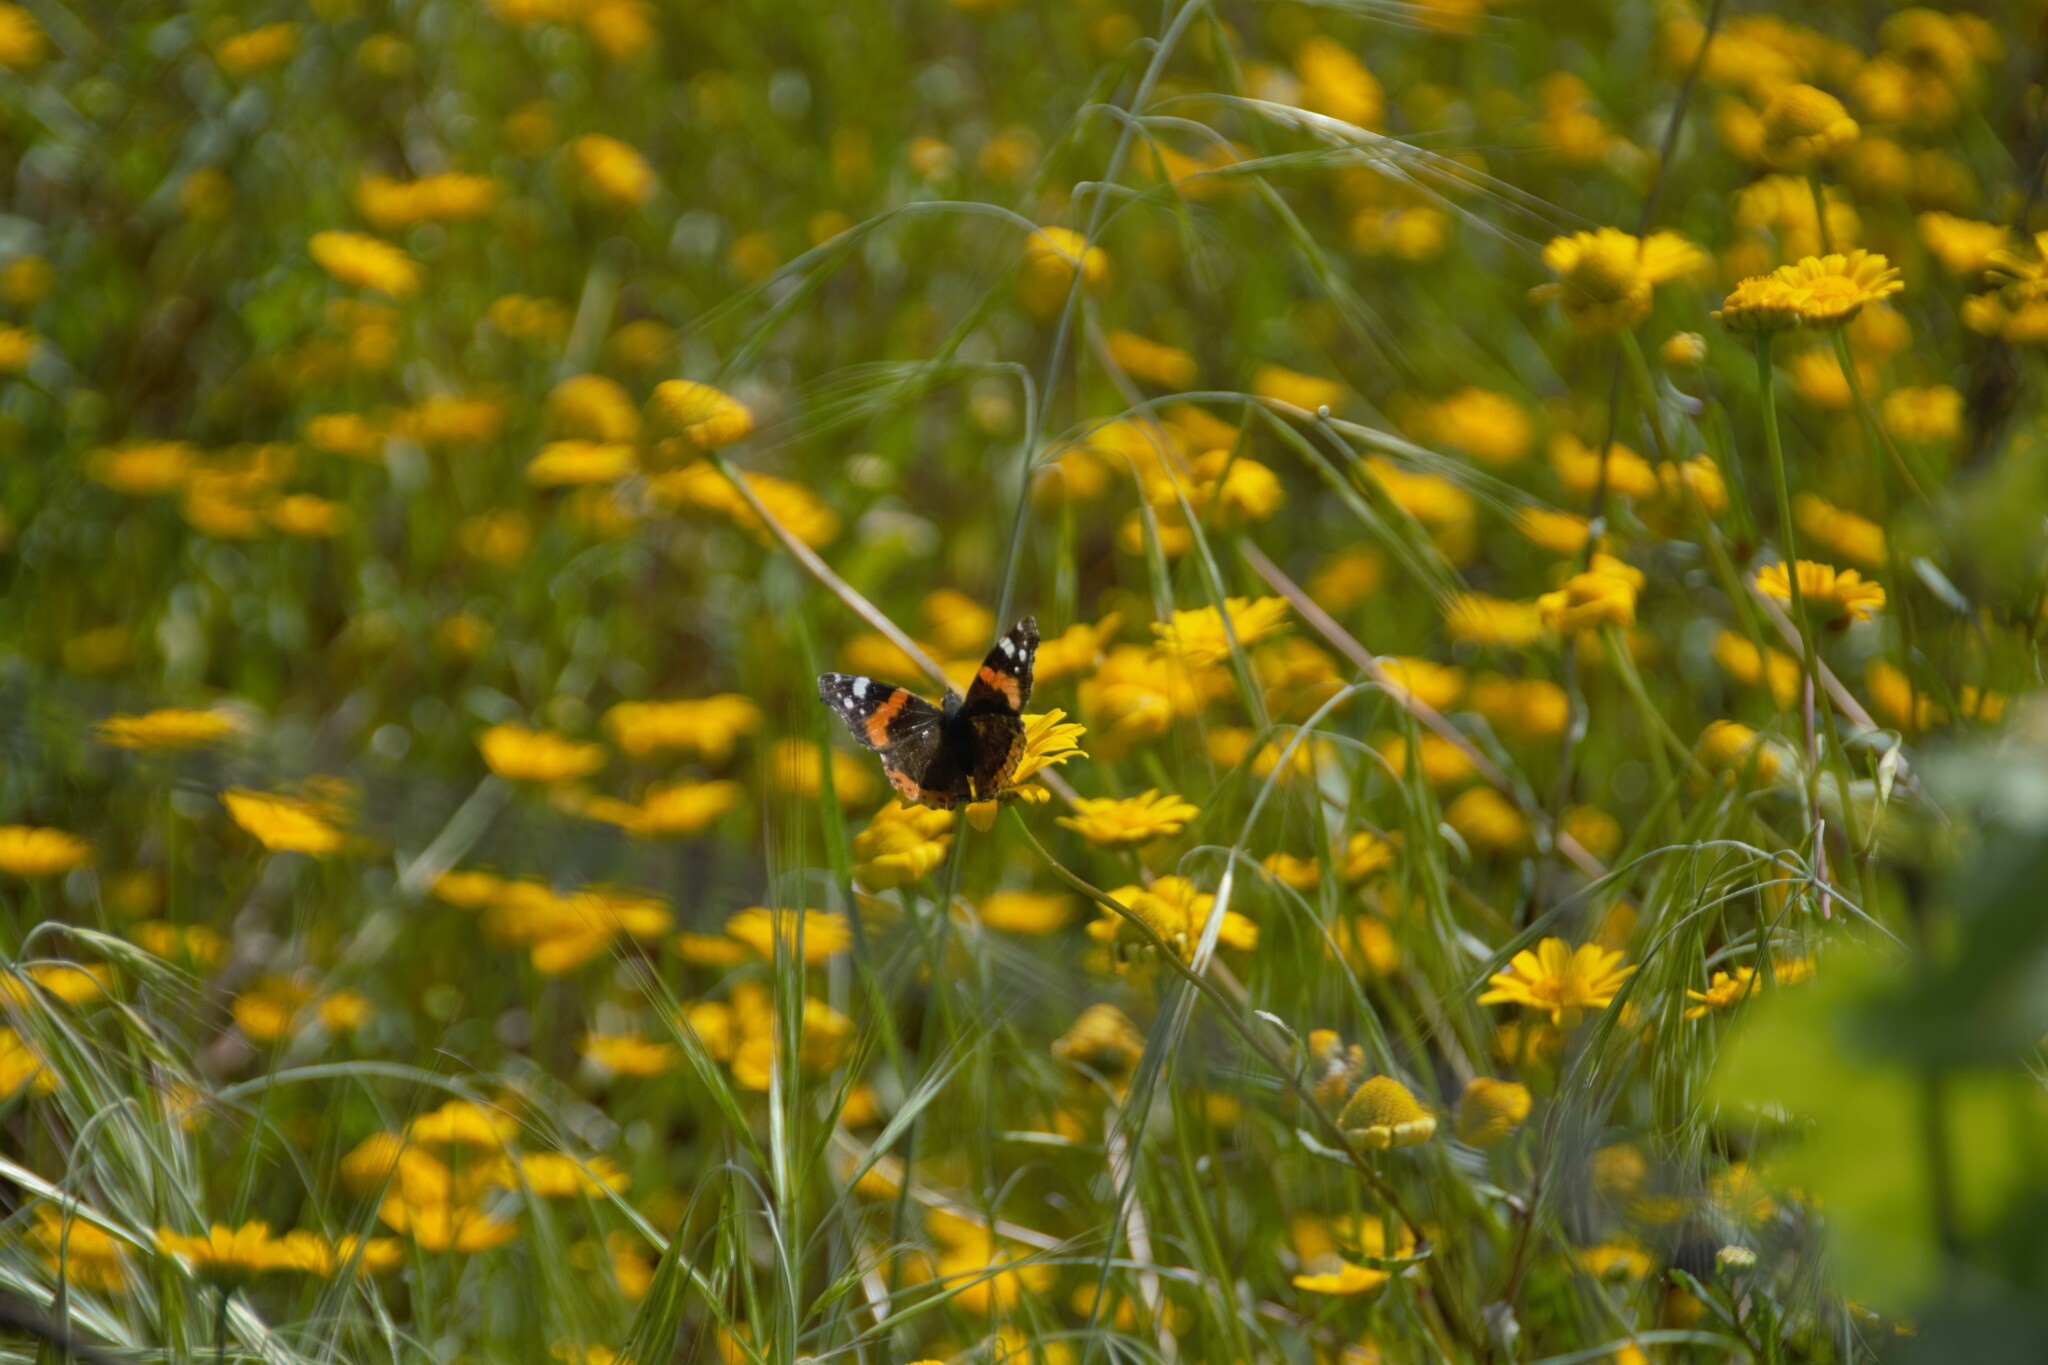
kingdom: Animalia
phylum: Arthropoda
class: Insecta
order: Lepidoptera
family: Nymphalidae
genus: Vanessa
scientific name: Vanessa atalanta
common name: Red admiral
